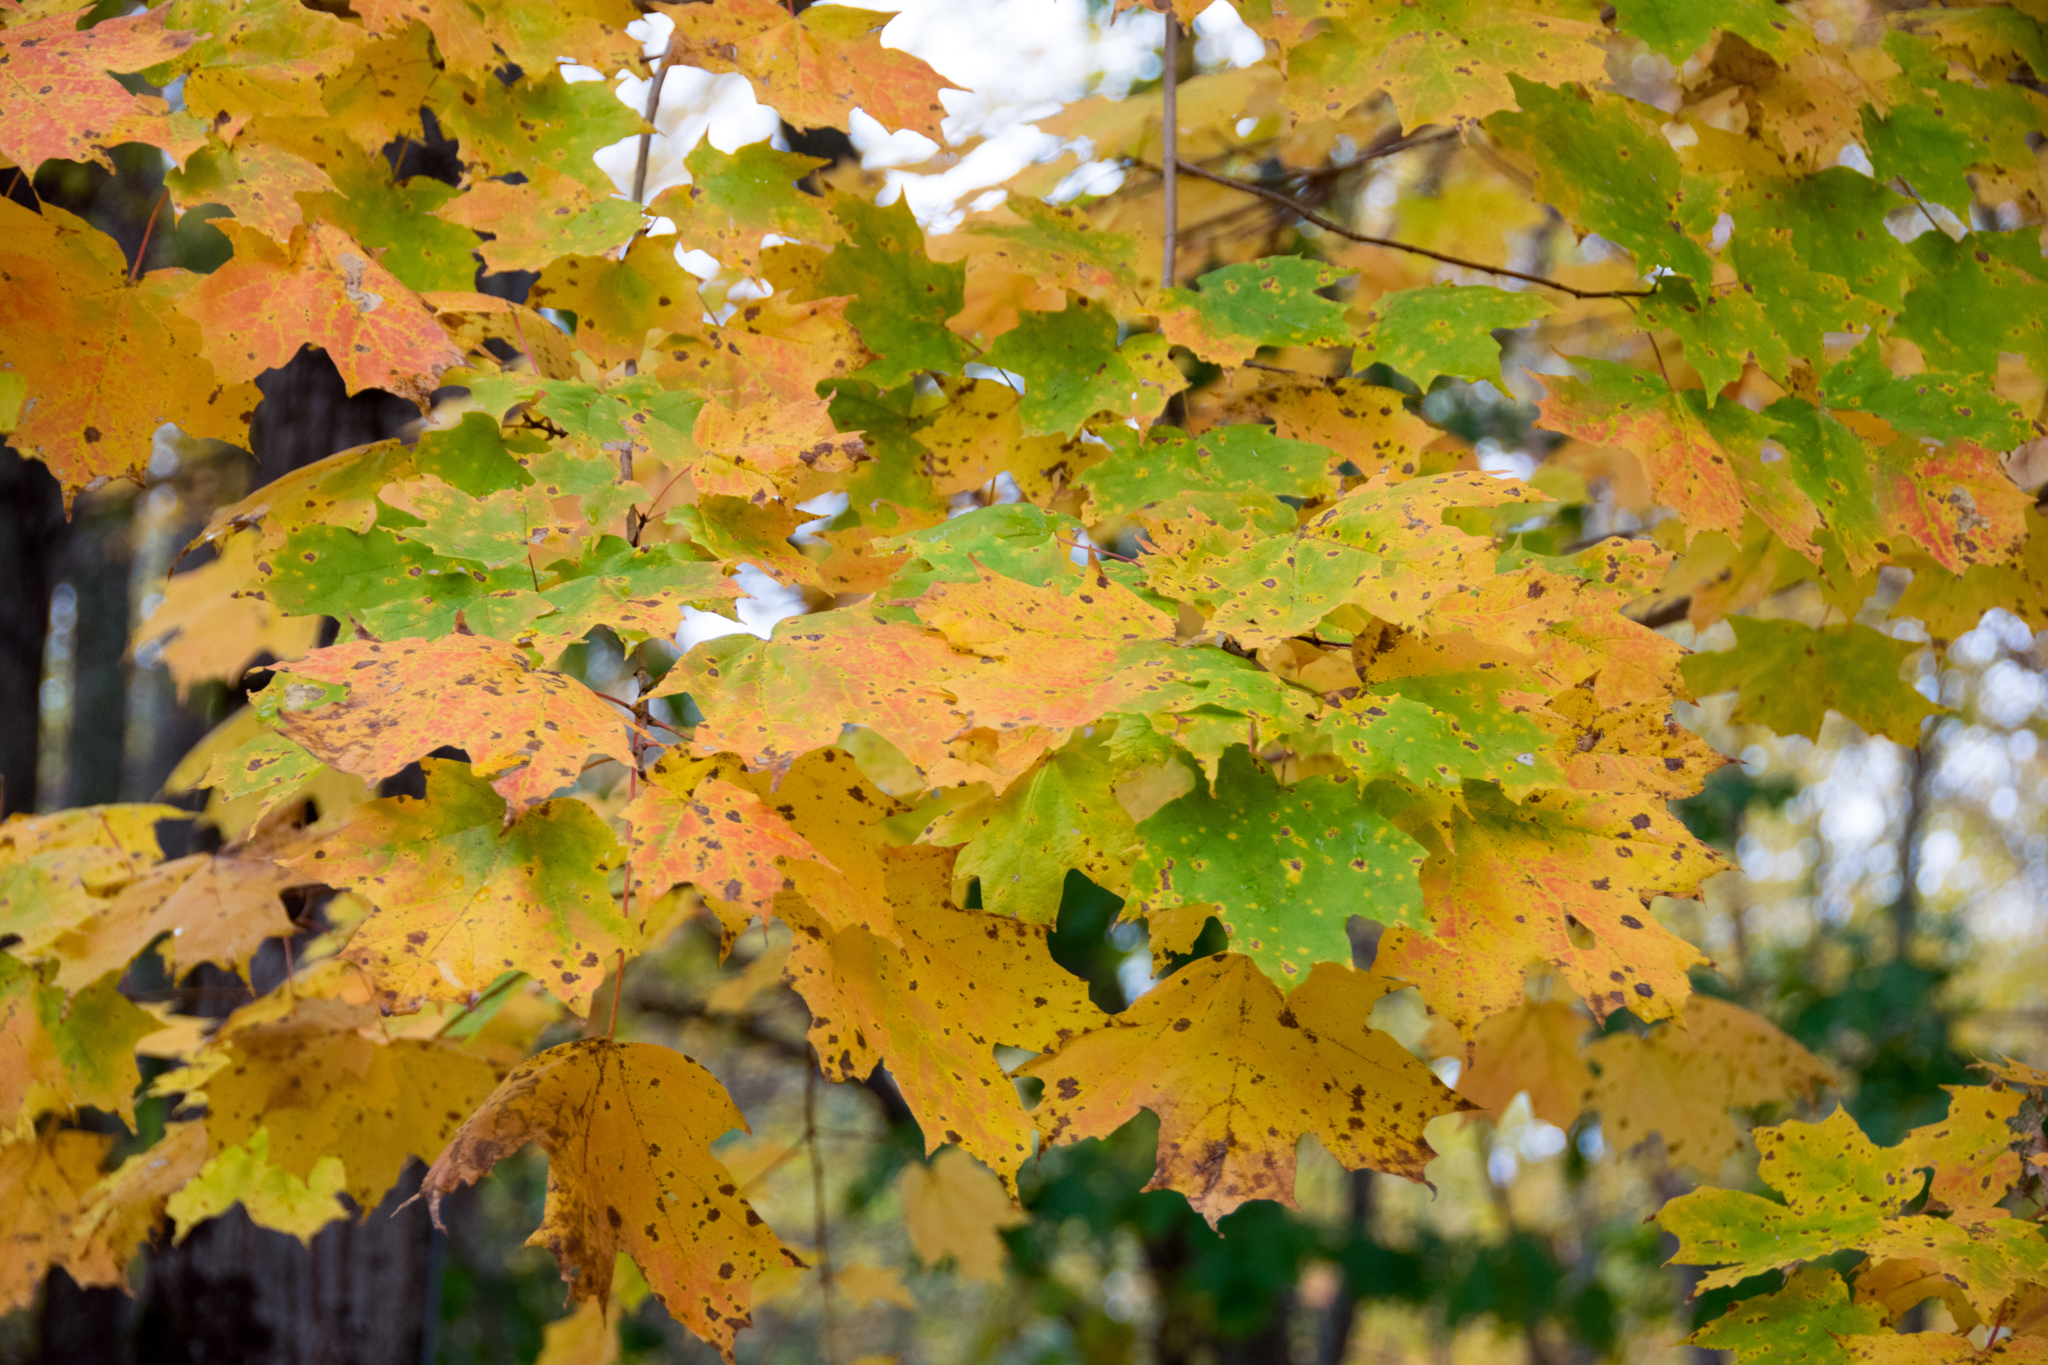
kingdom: Plantae
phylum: Tracheophyta
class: Magnoliopsida
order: Sapindales
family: Sapindaceae
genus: Acer
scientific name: Acer saccharum
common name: Sugar maple
